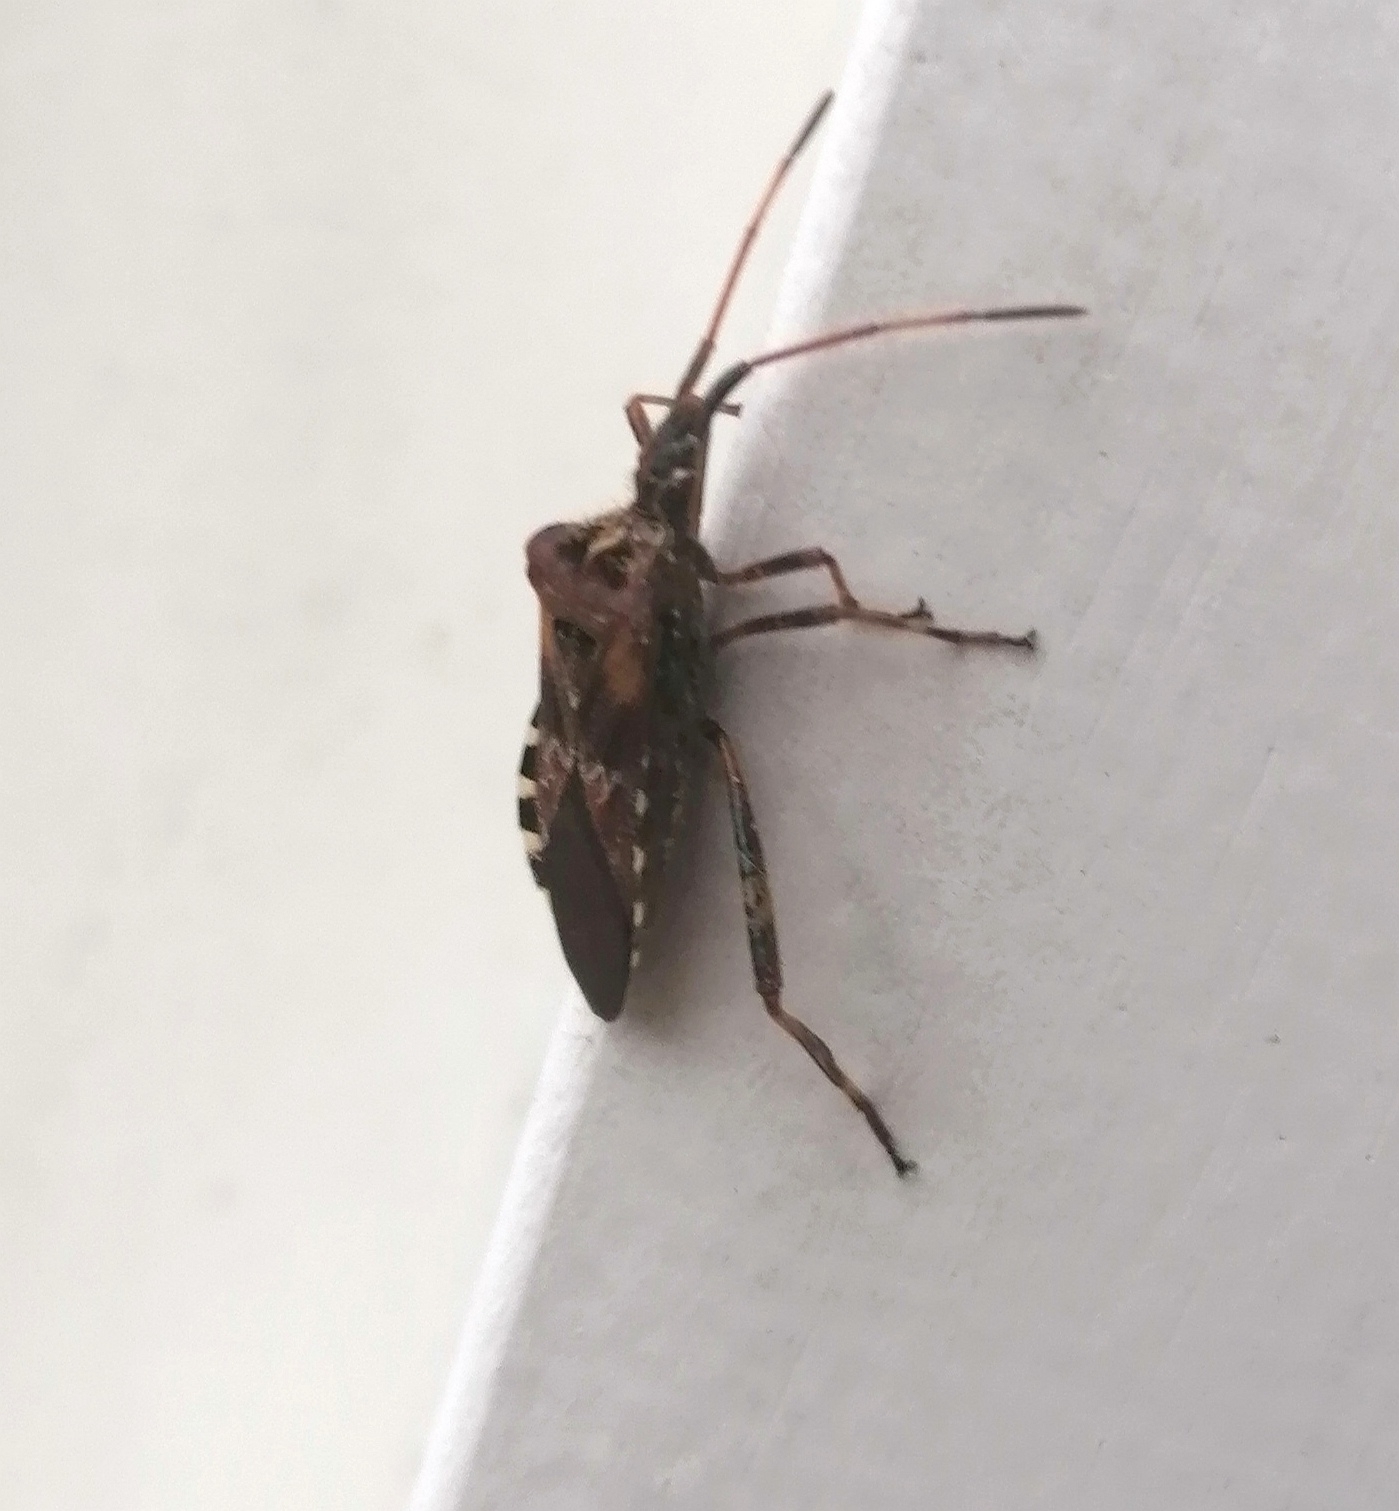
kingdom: Animalia
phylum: Arthropoda
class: Insecta
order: Hemiptera
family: Coreidae
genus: Leptoglossus
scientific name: Leptoglossus occidentalis
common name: Western conifer-seed bug
